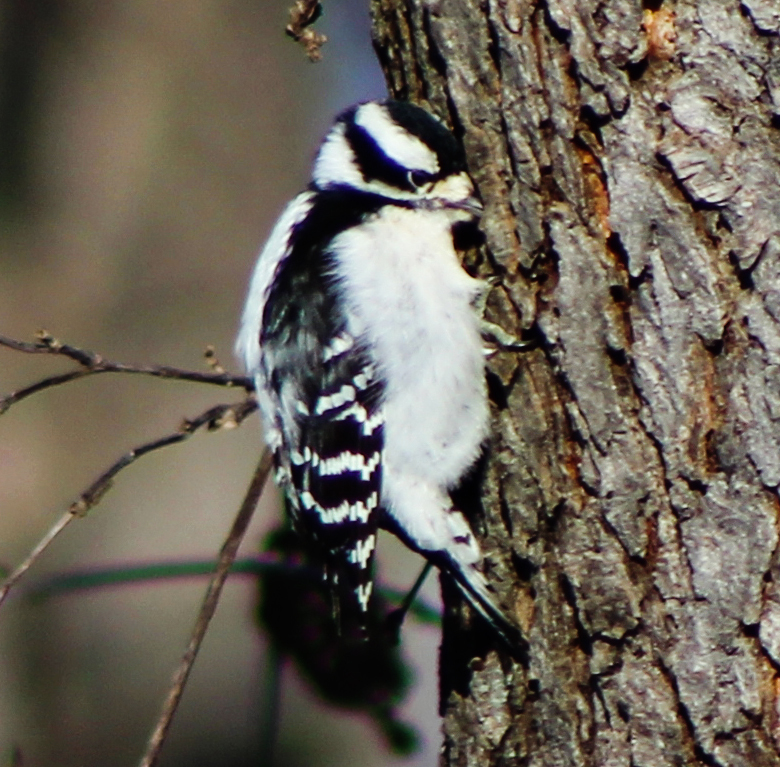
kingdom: Animalia
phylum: Chordata
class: Aves
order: Piciformes
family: Picidae
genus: Dryobates
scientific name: Dryobates pubescens
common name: Downy woodpecker
